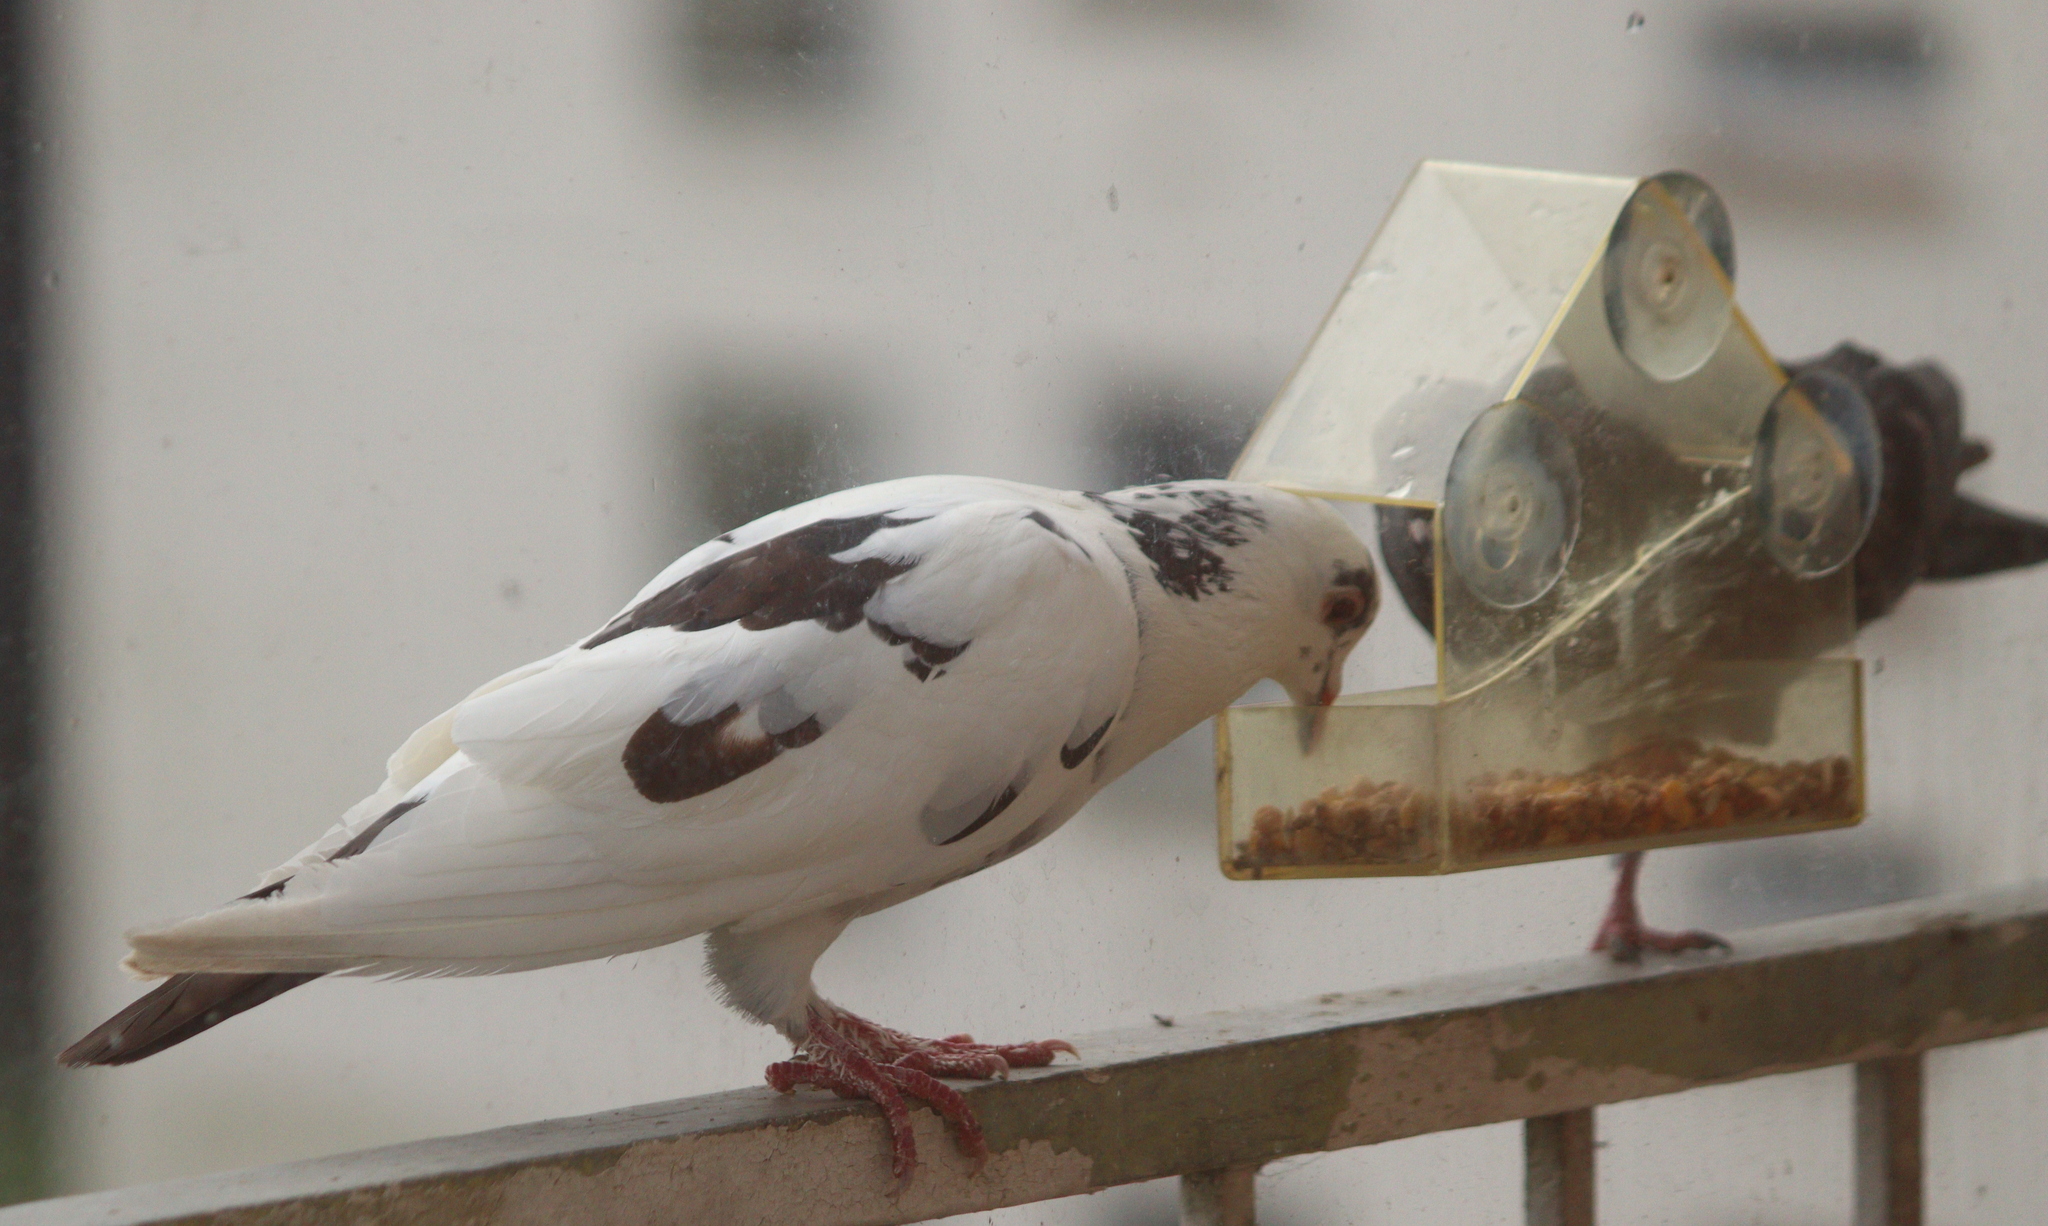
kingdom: Animalia
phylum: Chordata
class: Aves
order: Columbiformes
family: Columbidae
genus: Columba
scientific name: Columba livia
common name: Rock pigeon
